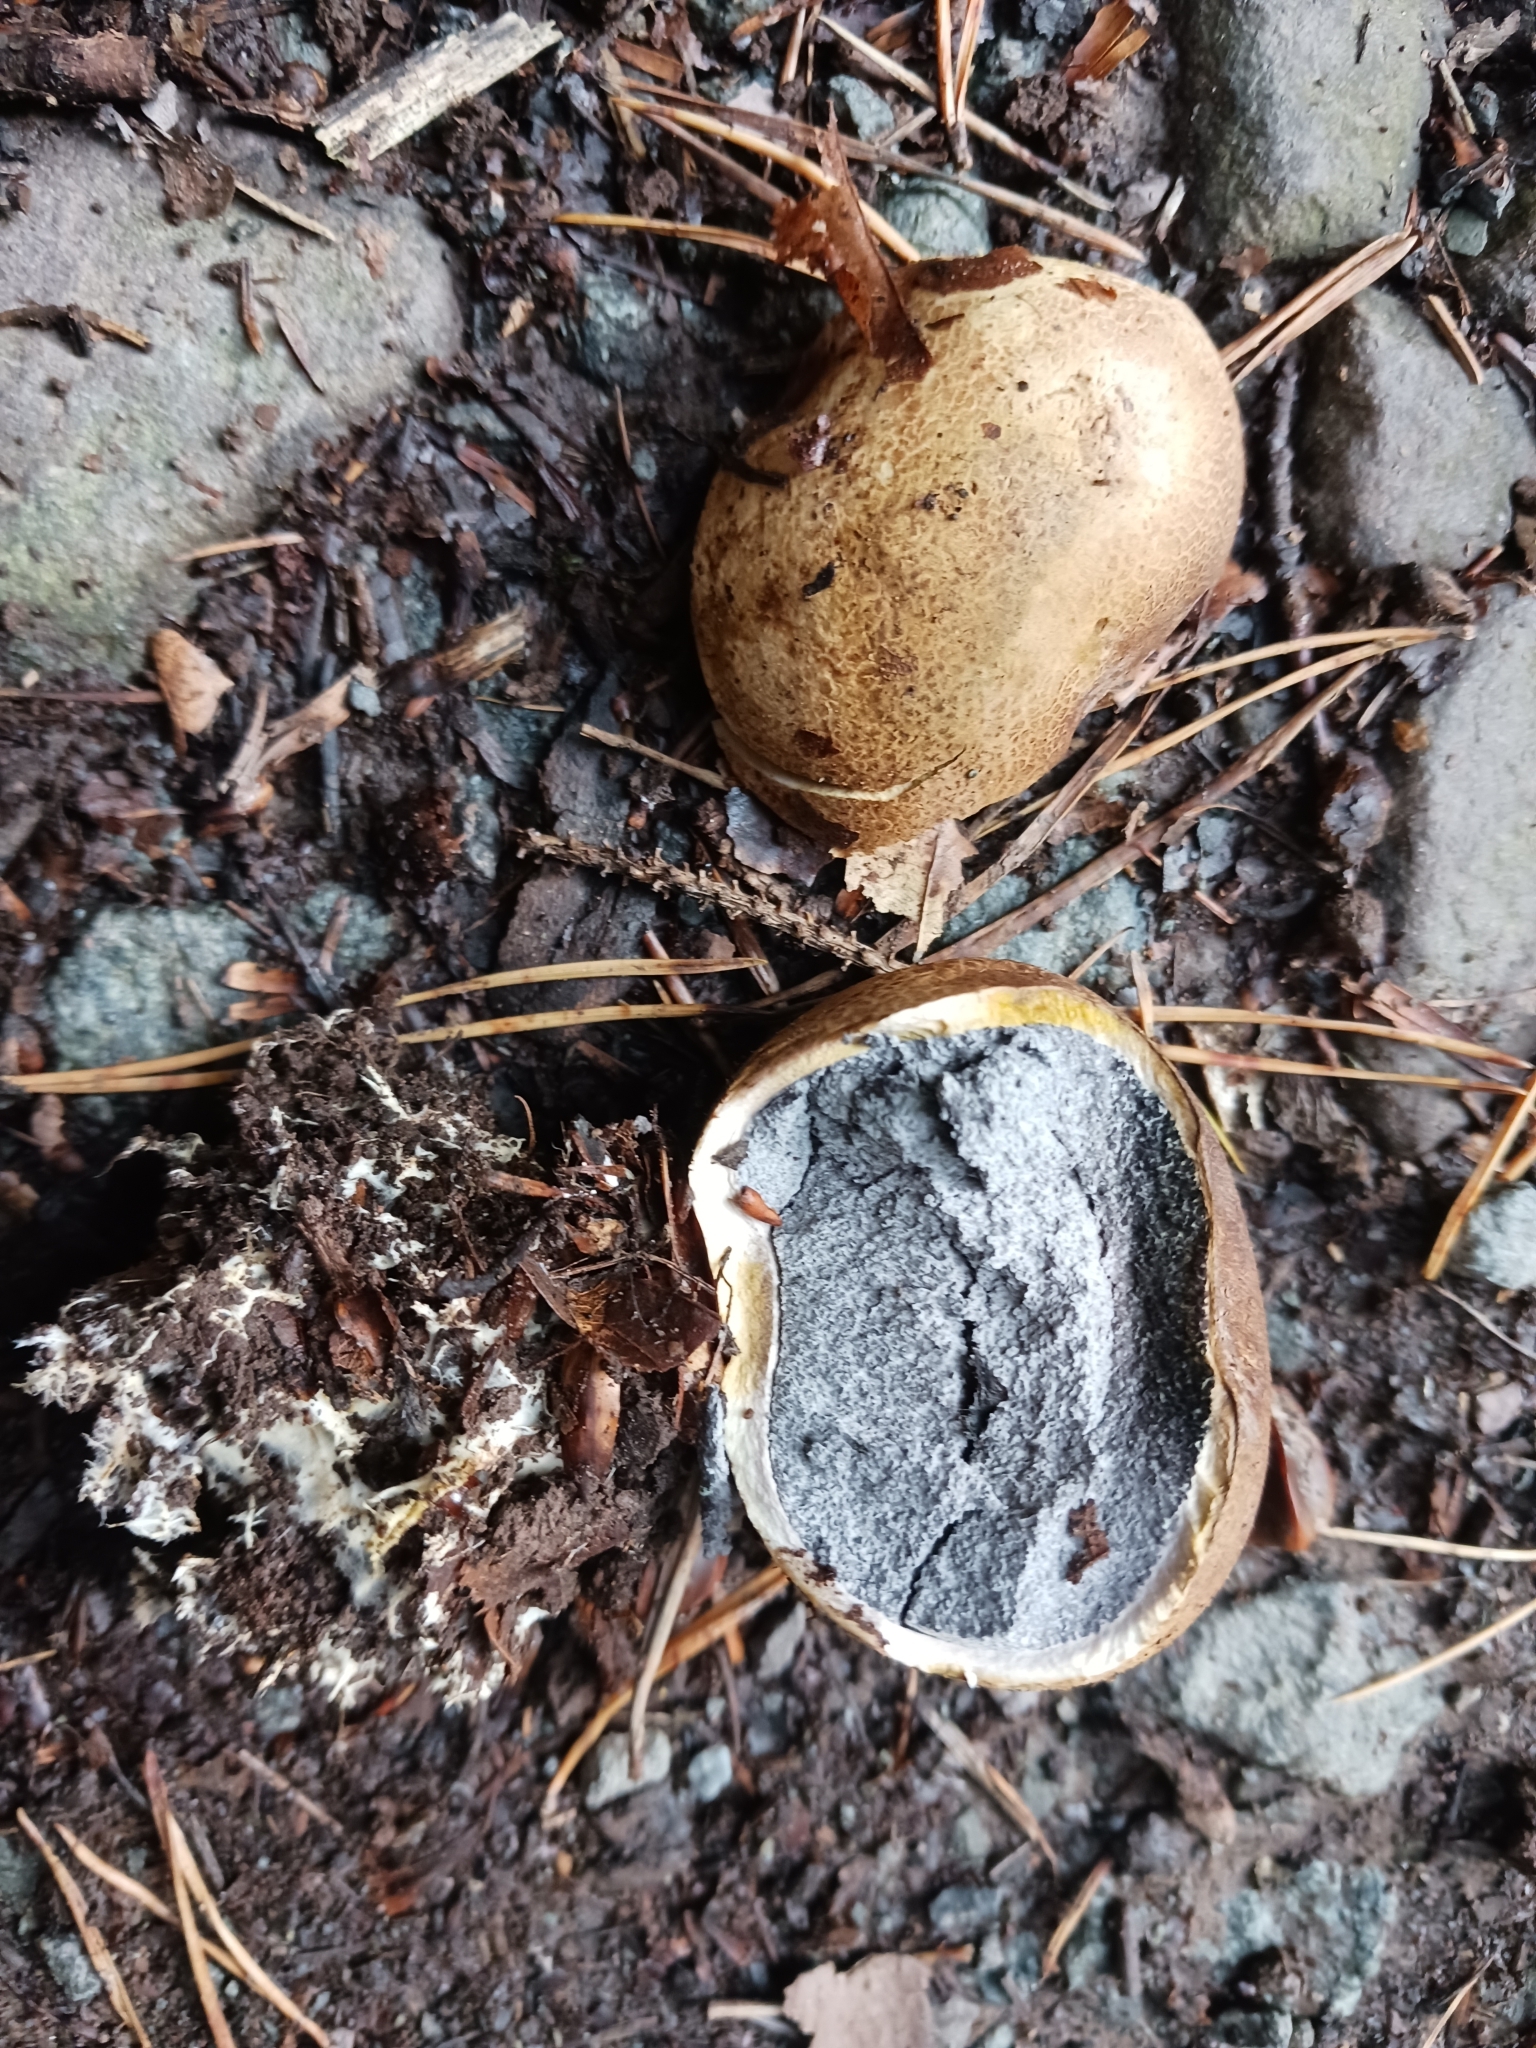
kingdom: Fungi
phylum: Basidiomycota
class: Agaricomycetes
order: Boletales
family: Sclerodermataceae
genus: Scleroderma
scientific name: Scleroderma citrinum
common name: Common earthball
